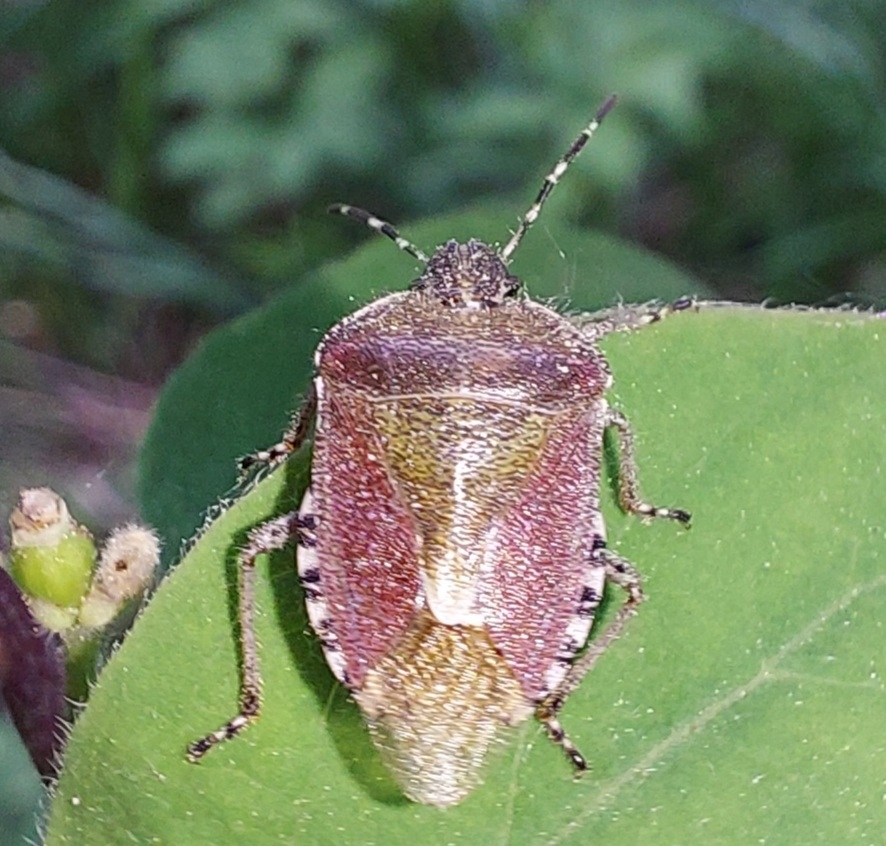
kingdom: Animalia
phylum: Arthropoda
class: Insecta
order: Hemiptera
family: Pentatomidae
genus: Dolycoris
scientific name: Dolycoris baccarum
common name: Sloe bug
